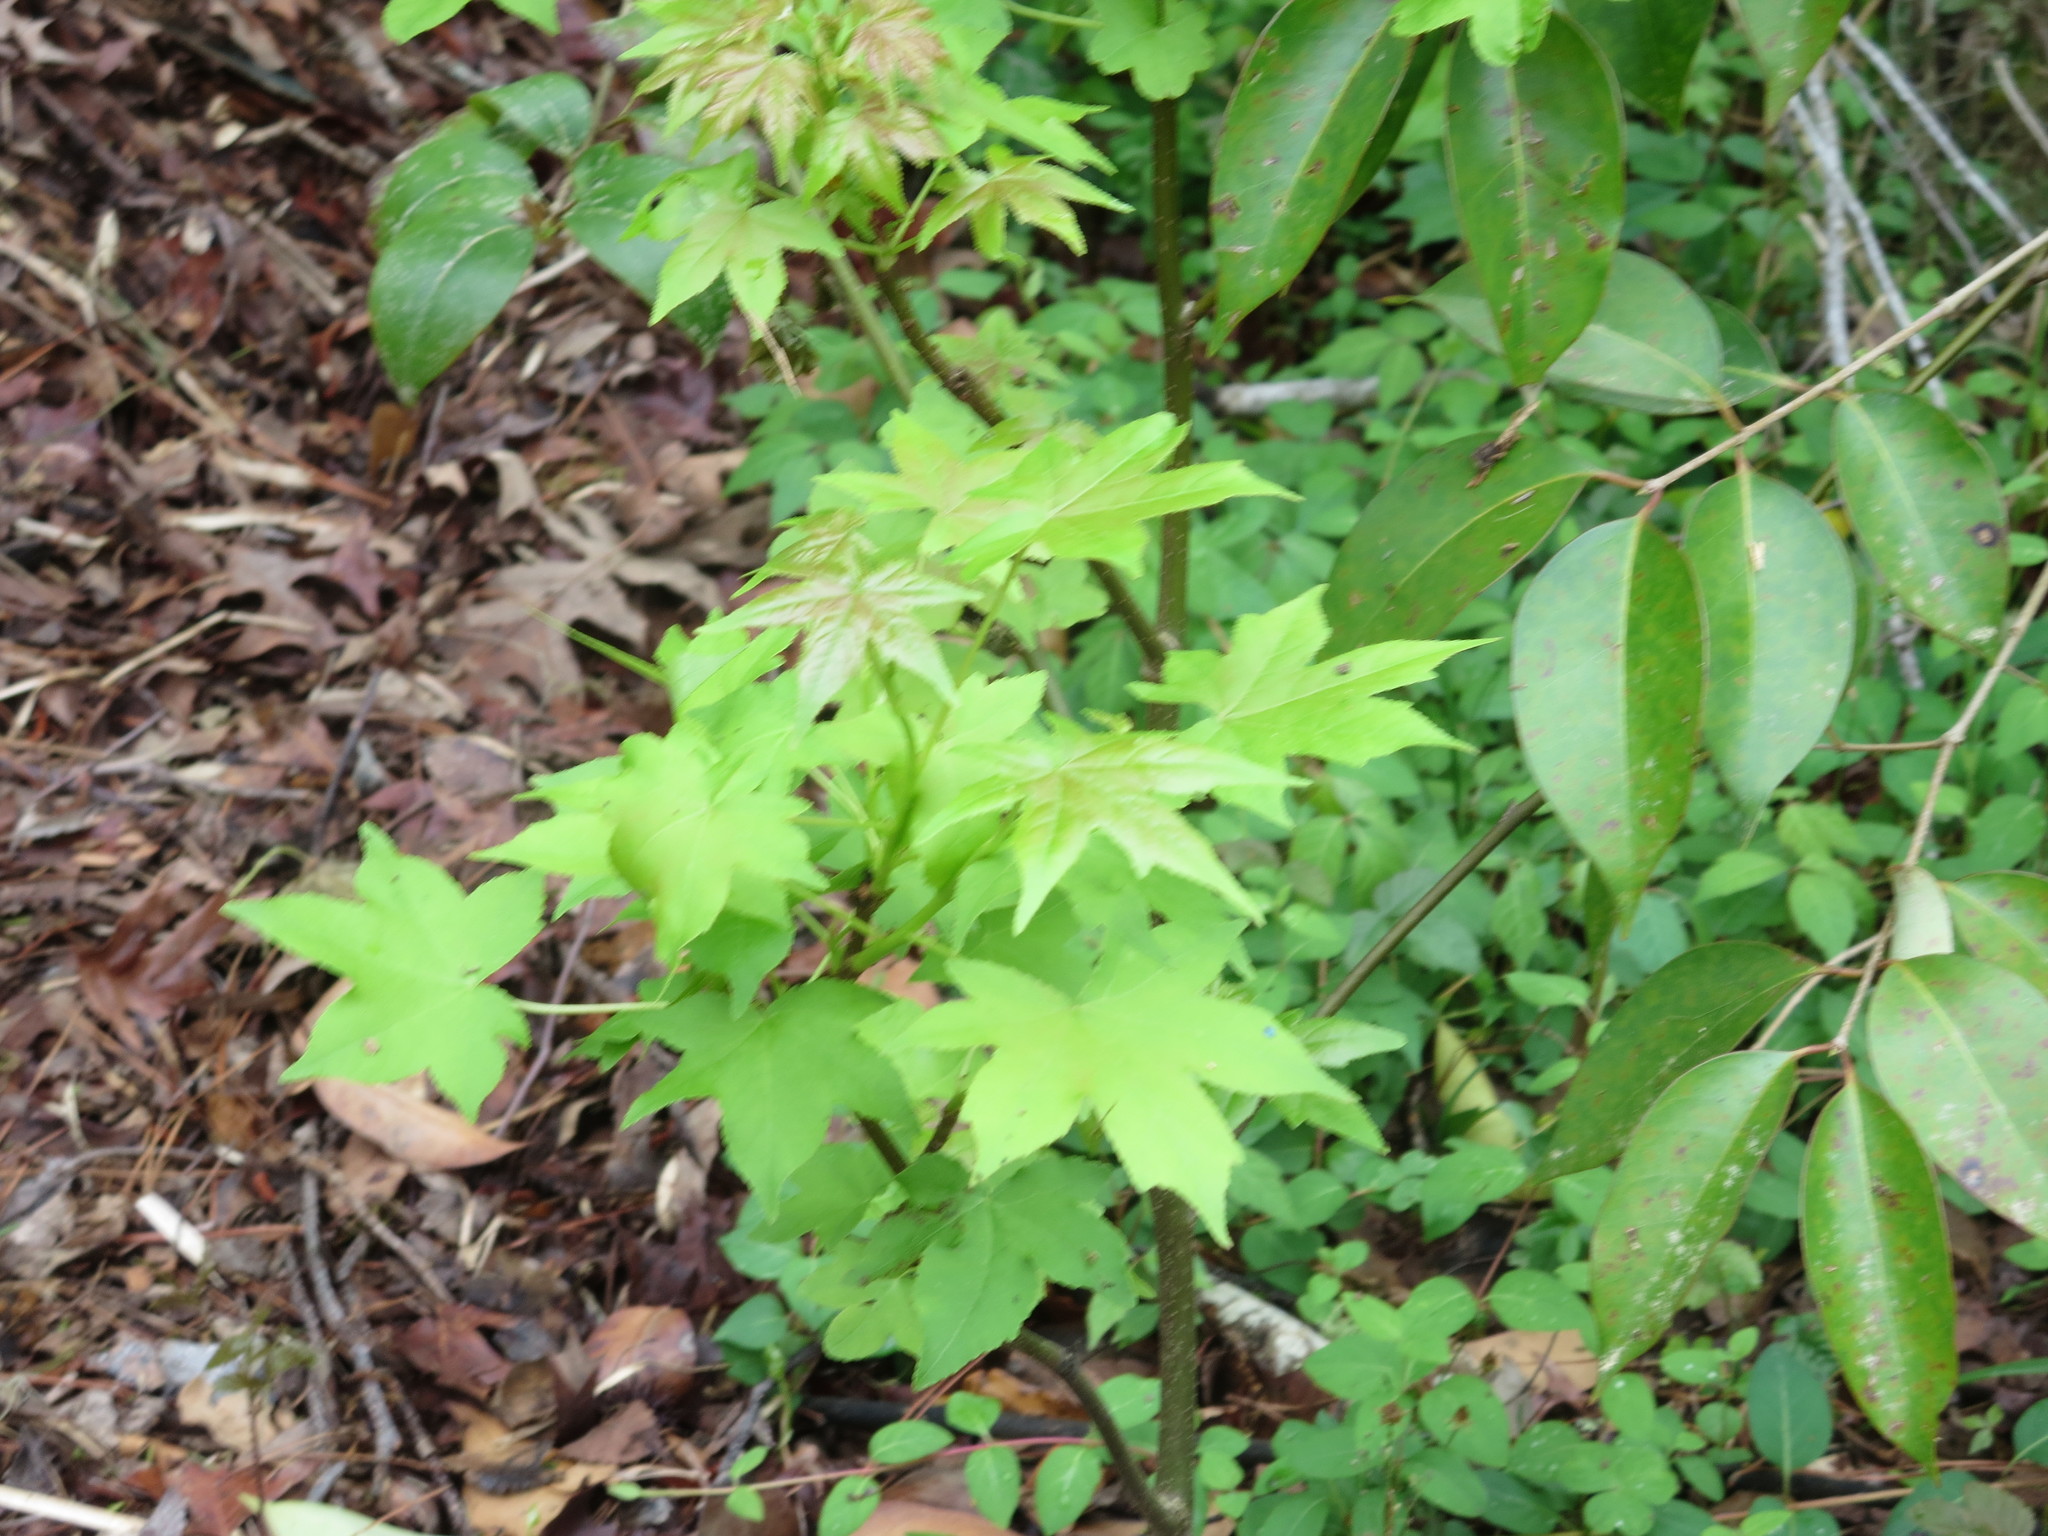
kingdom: Plantae
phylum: Tracheophyta
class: Magnoliopsida
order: Saxifragales
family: Altingiaceae
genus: Liquidambar
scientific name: Liquidambar styraciflua
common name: Sweet gum
